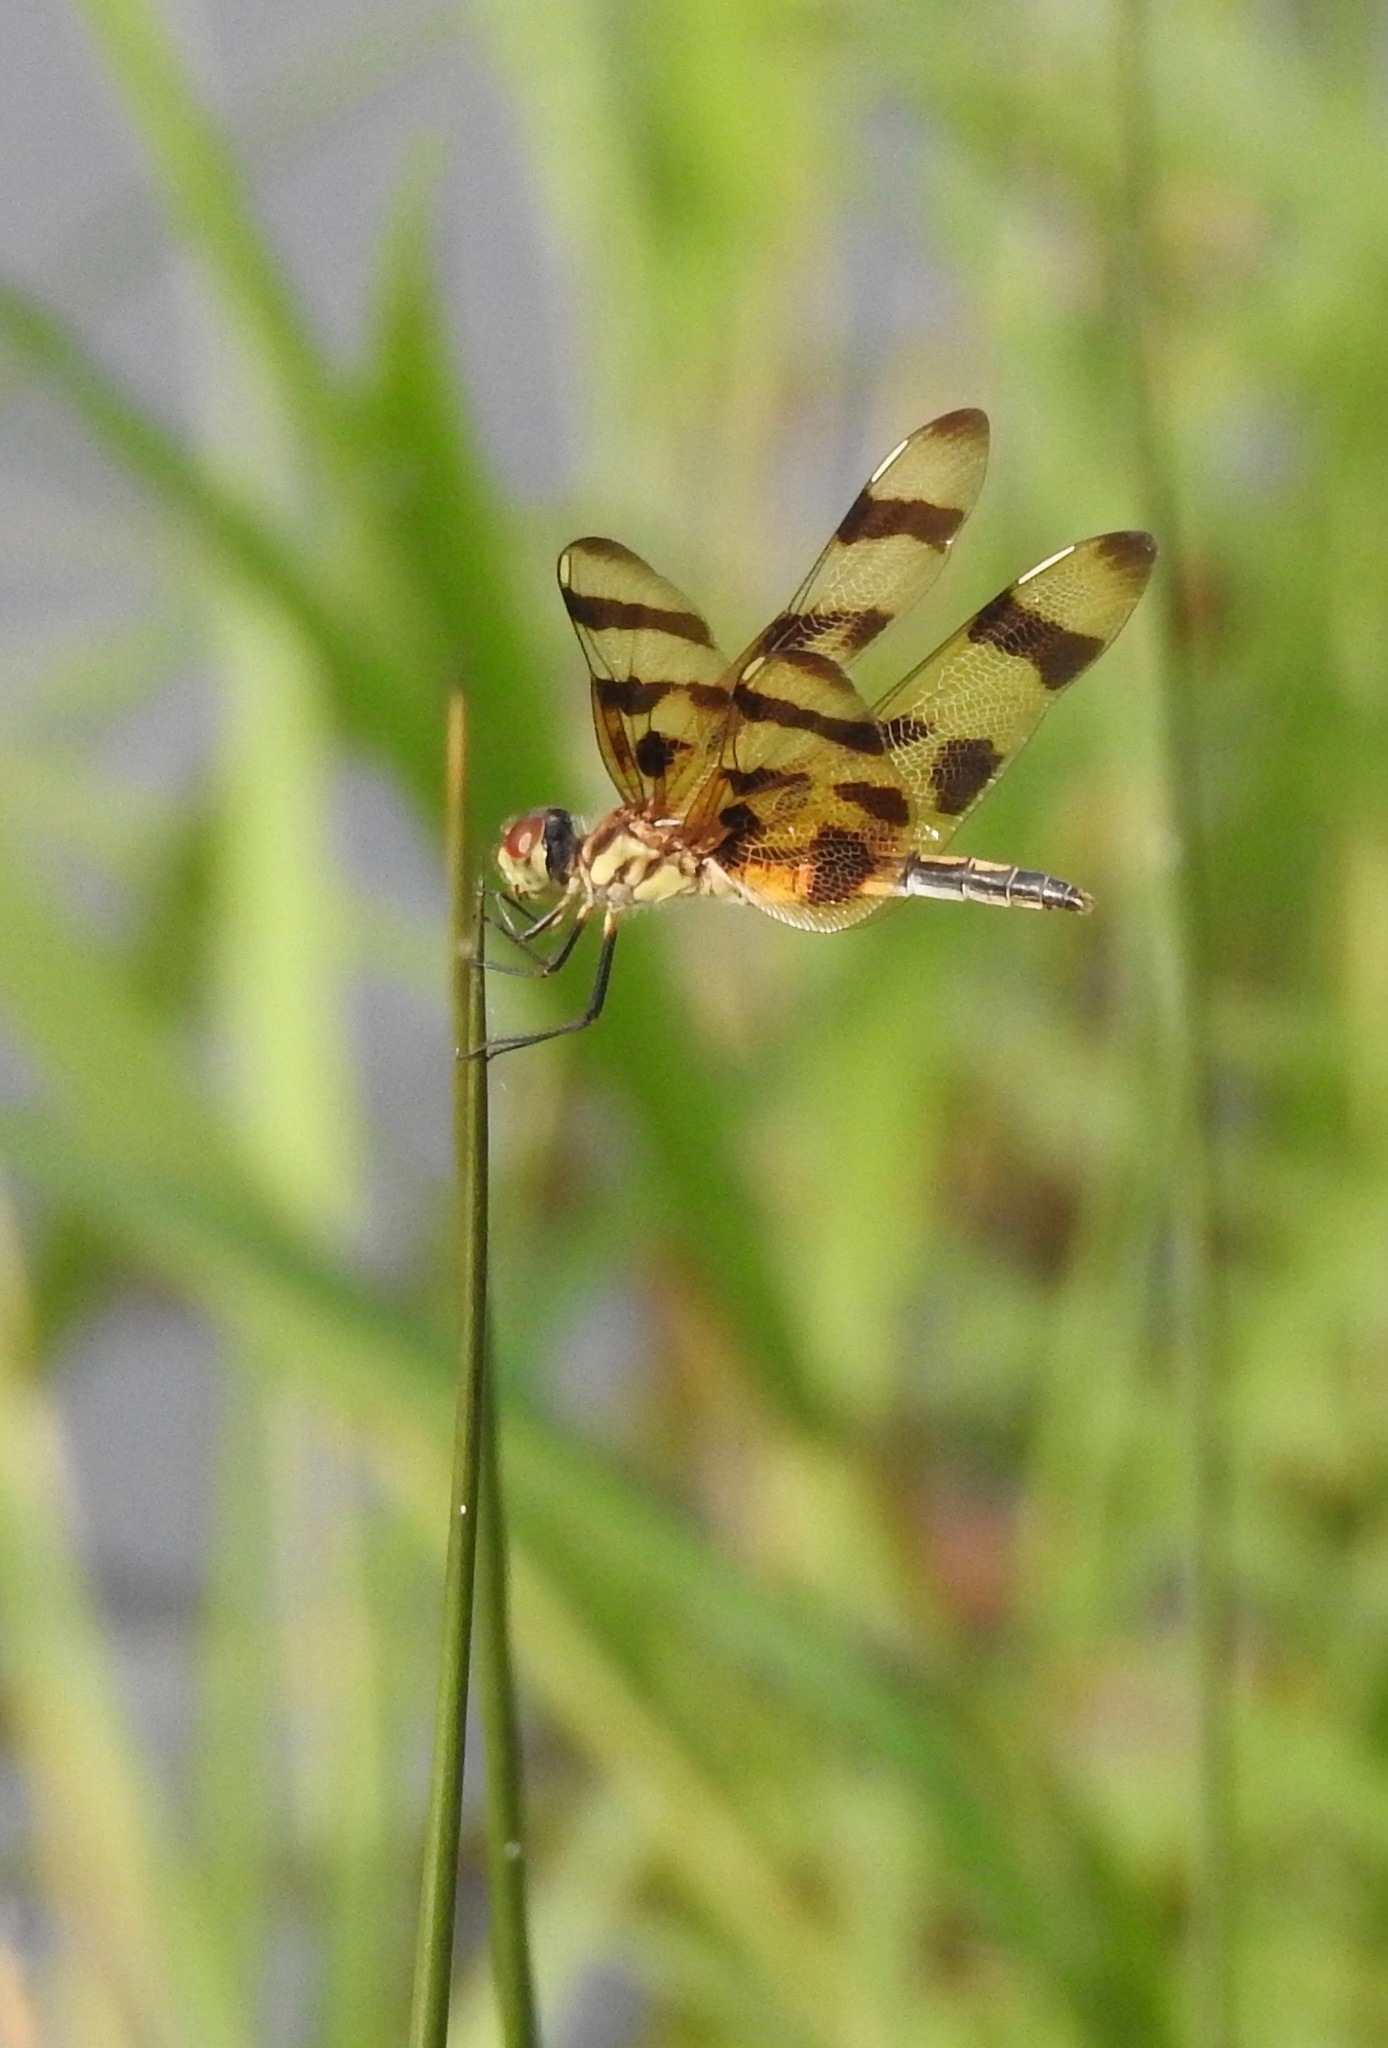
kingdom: Animalia
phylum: Arthropoda
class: Insecta
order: Odonata
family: Libellulidae
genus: Celithemis
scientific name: Celithemis eponina
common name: Halloween pennant
